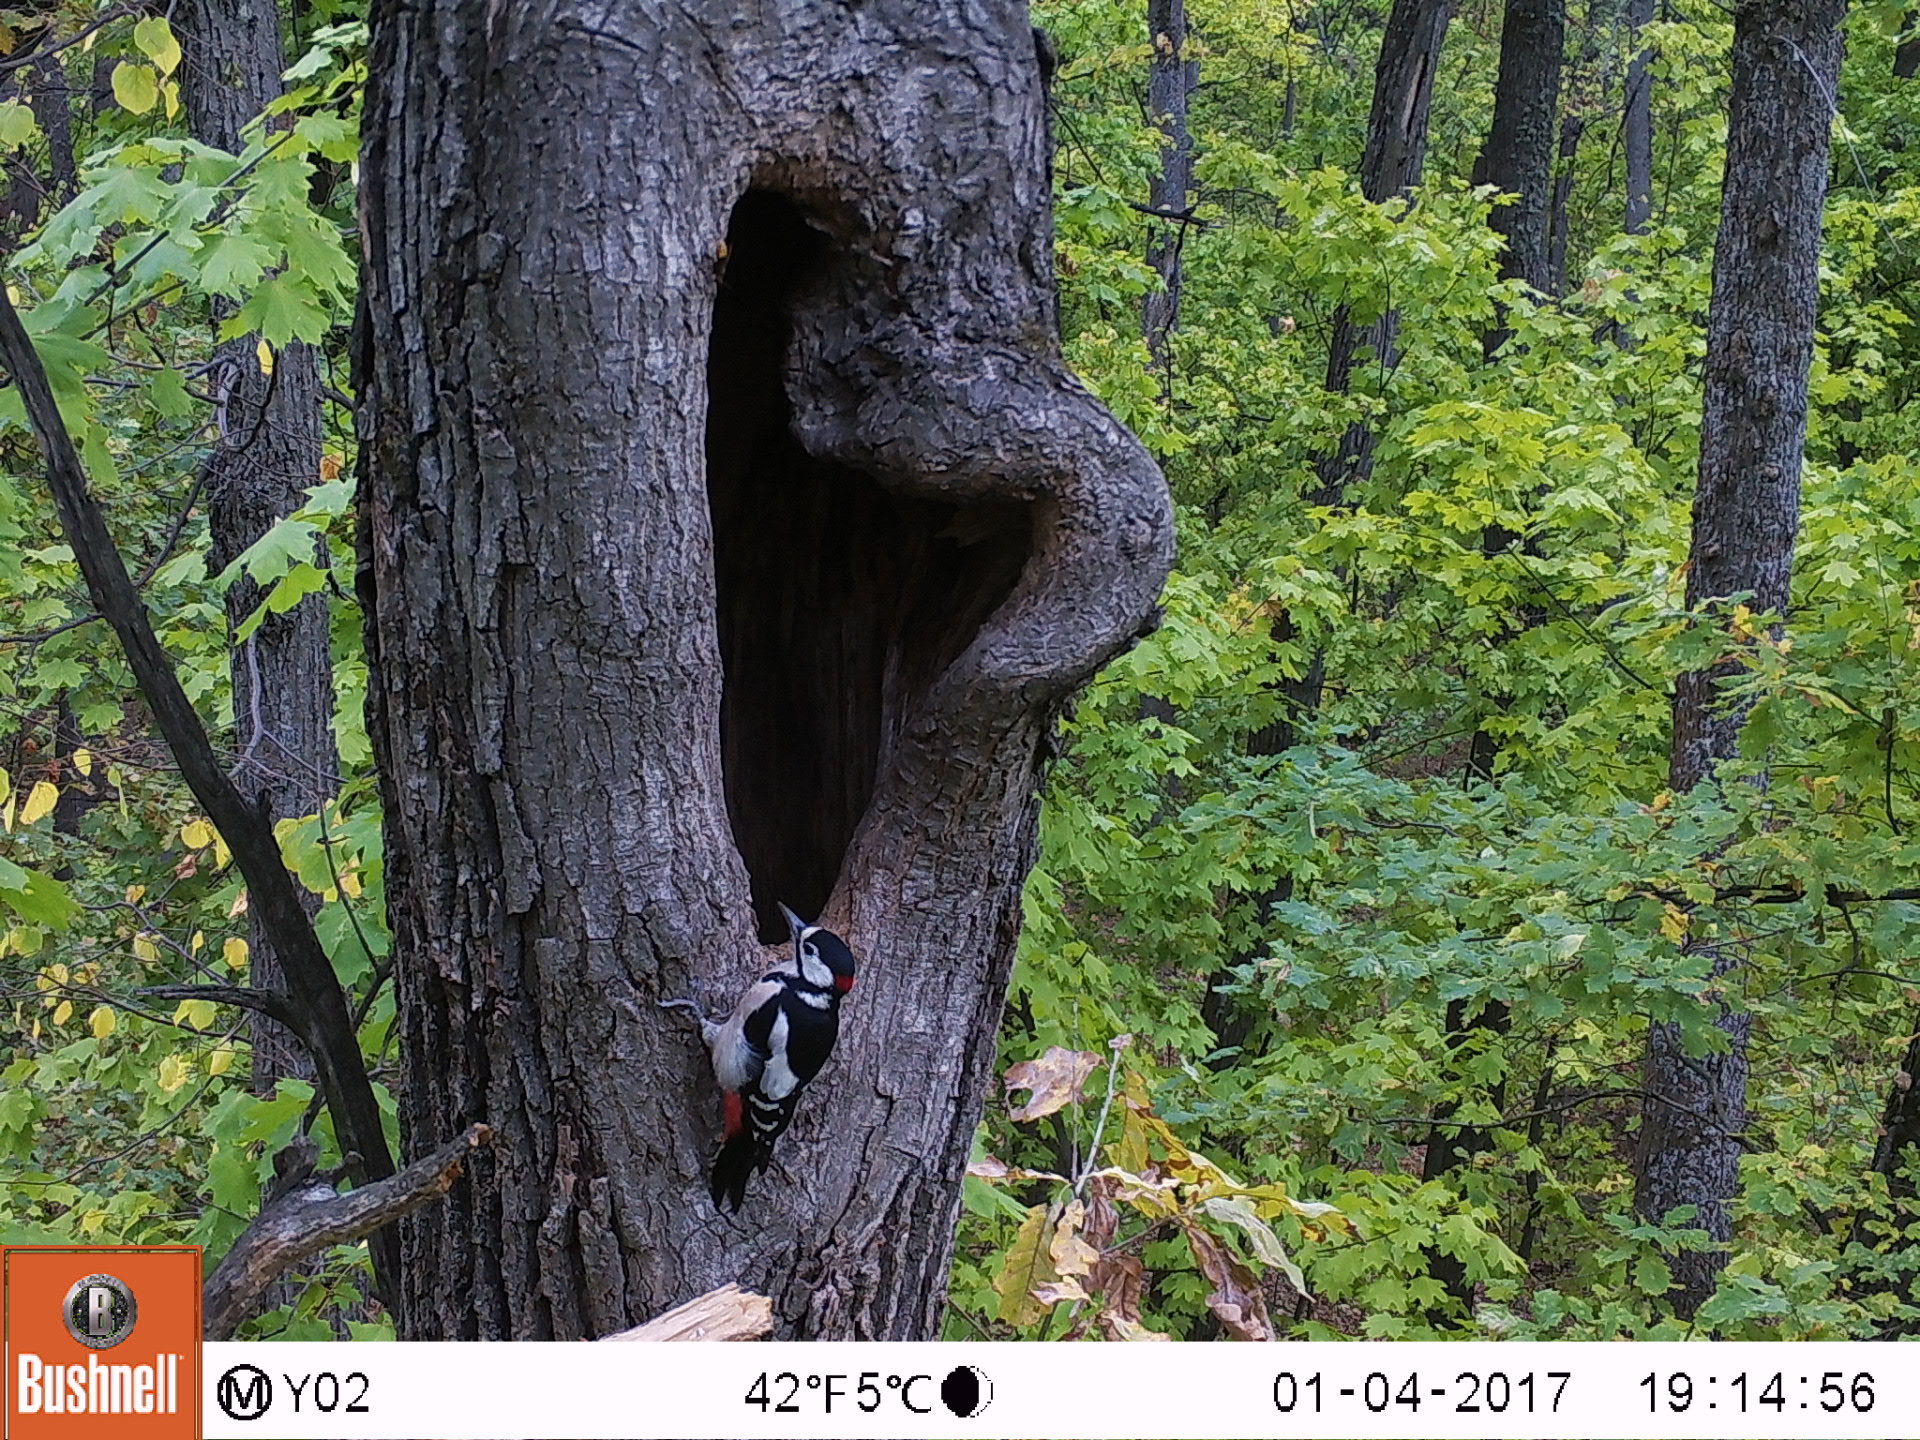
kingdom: Animalia
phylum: Chordata
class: Aves
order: Piciformes
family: Picidae
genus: Dendrocopos
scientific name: Dendrocopos major
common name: Great spotted woodpecker
